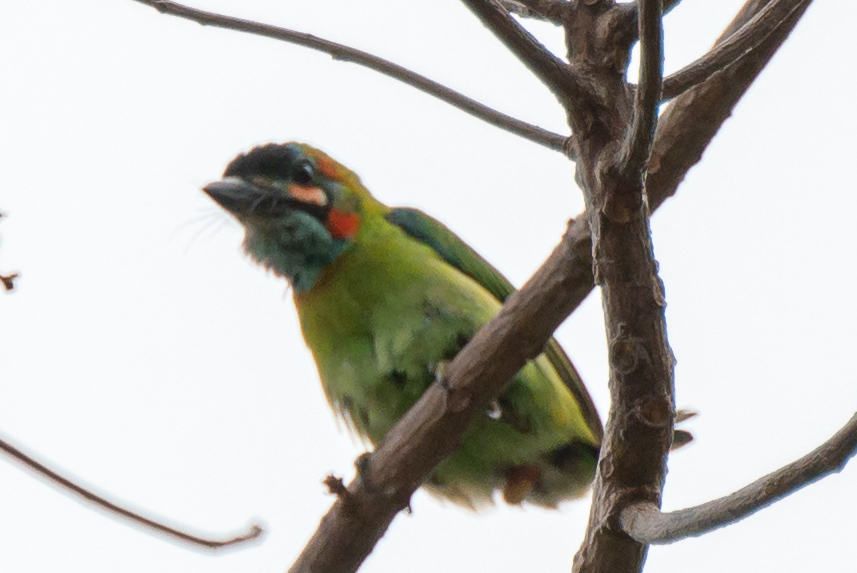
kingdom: Animalia
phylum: Chordata
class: Aves
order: Piciformes
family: Megalaimidae
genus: Psilopogon
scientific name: Psilopogon duvaucelii
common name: Blue-eared barbet
